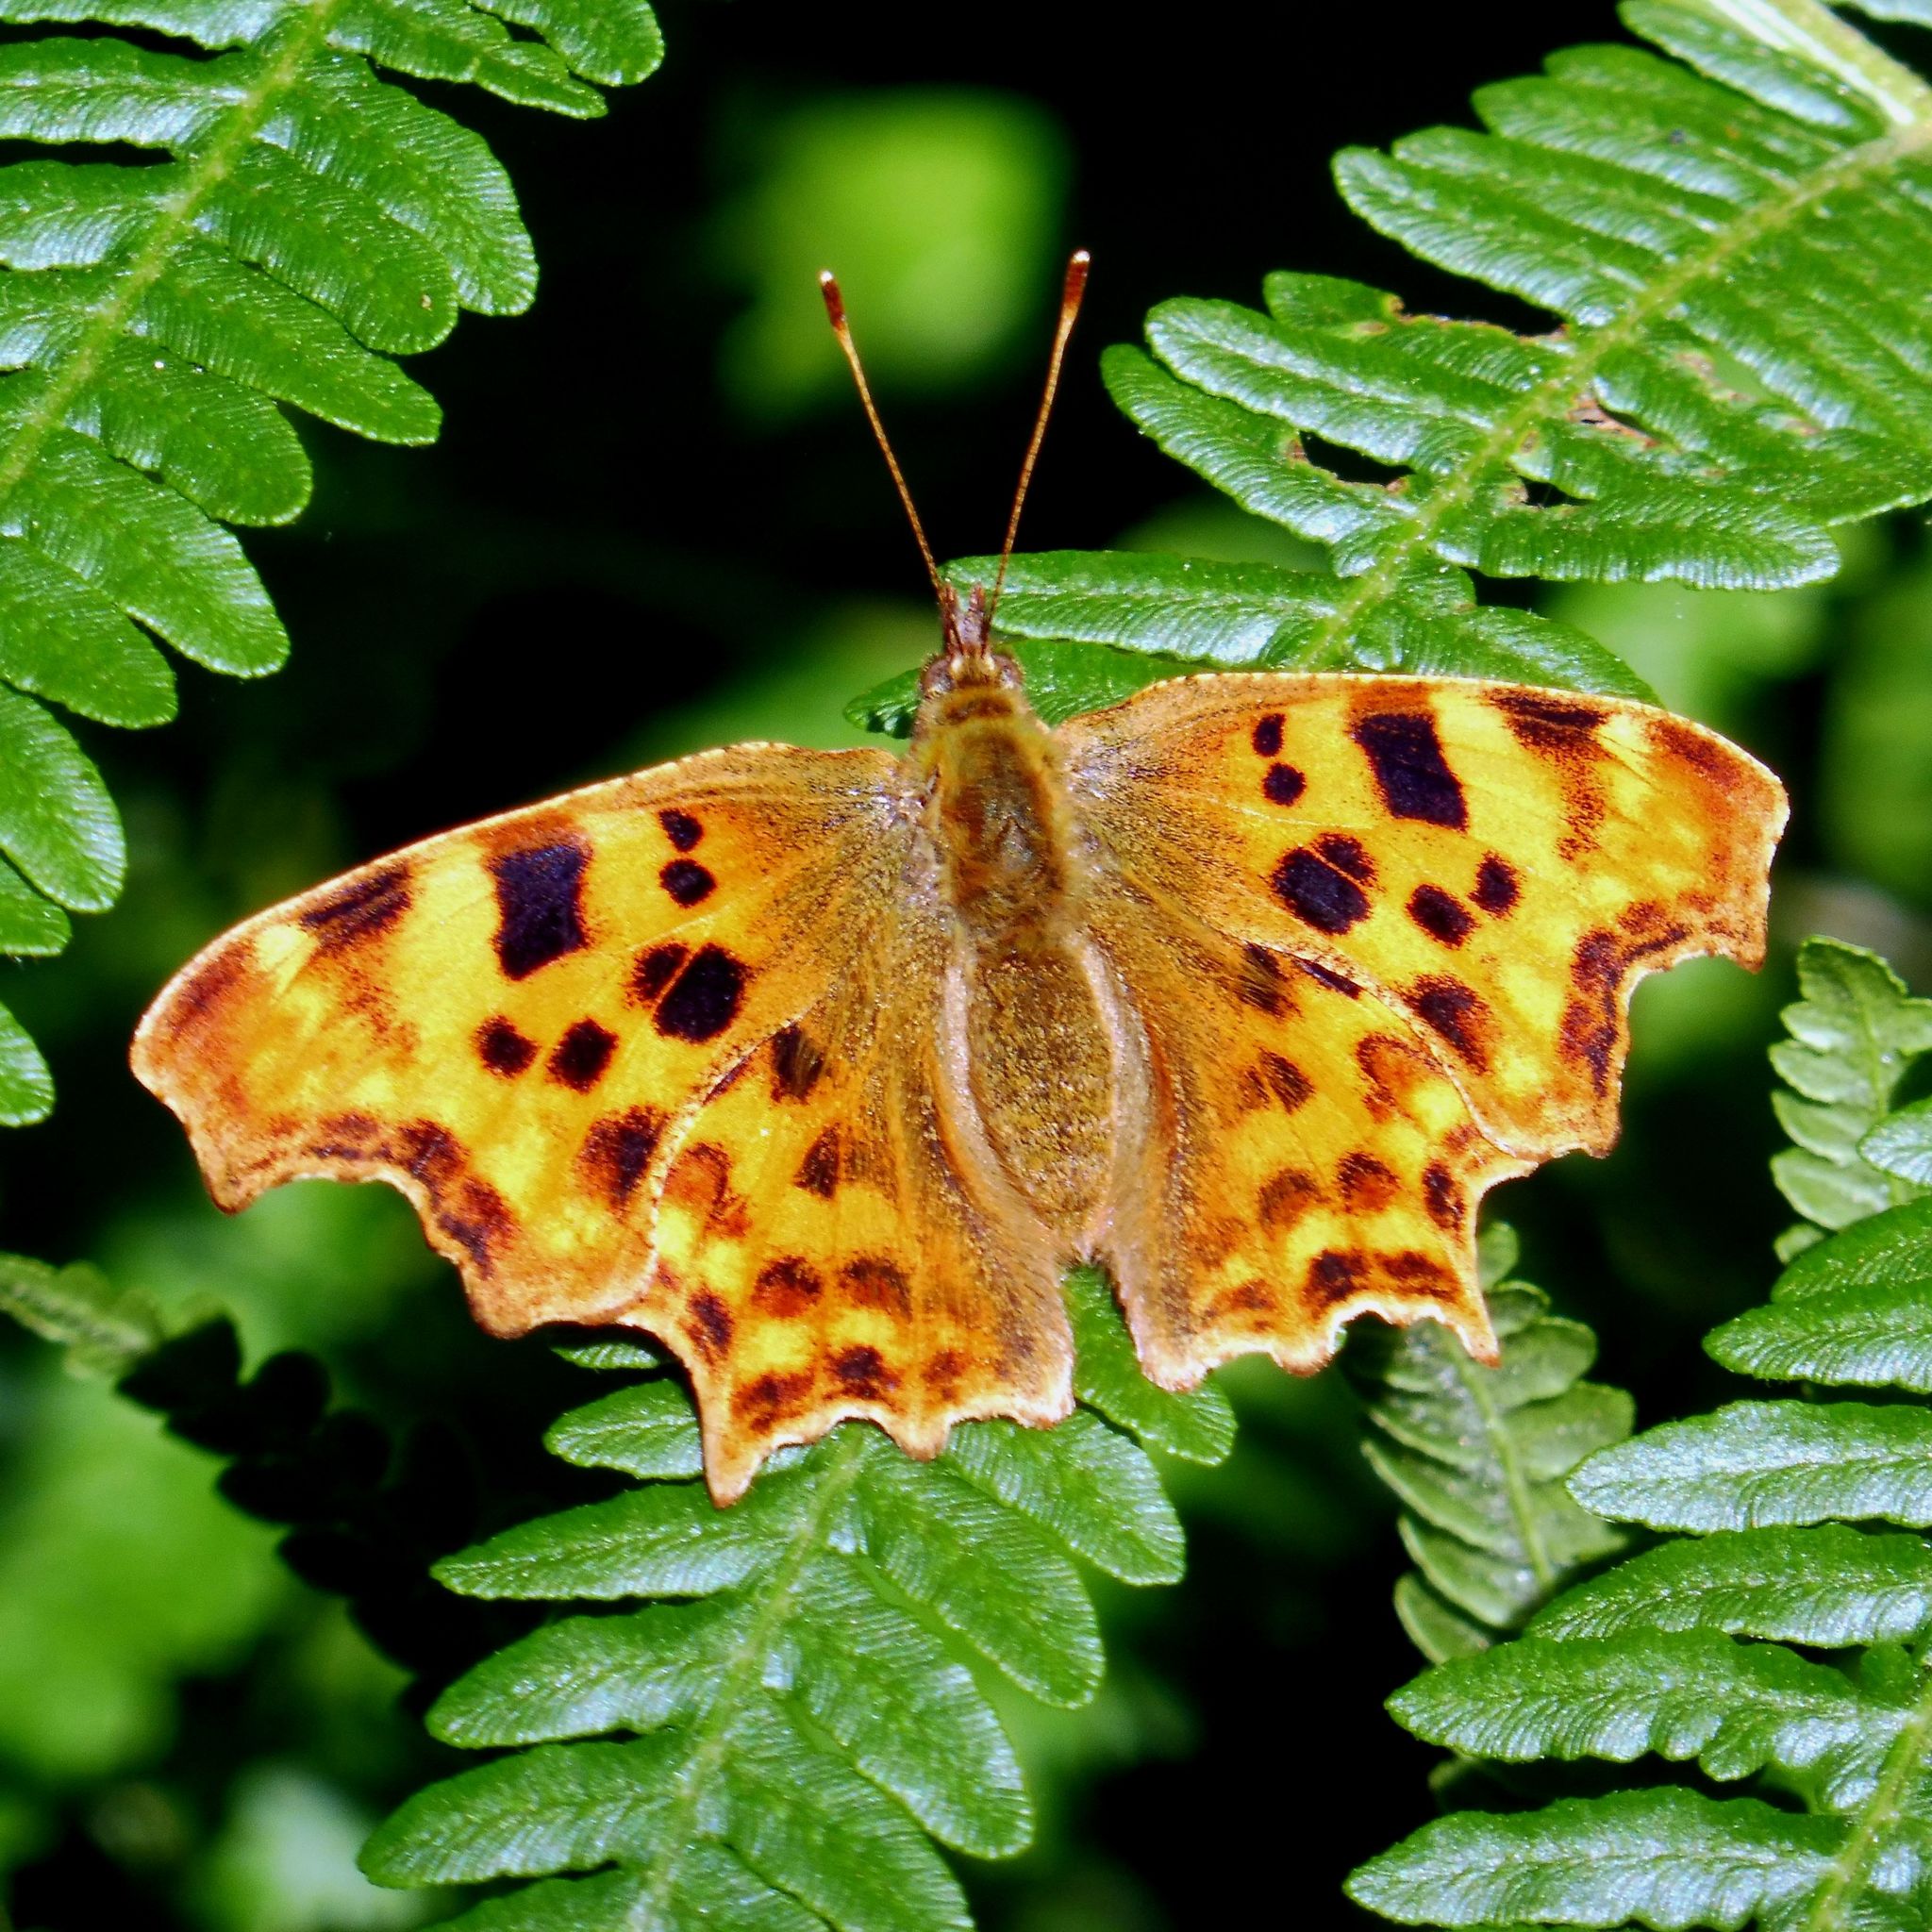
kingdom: Animalia
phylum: Arthropoda
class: Insecta
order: Lepidoptera
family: Nymphalidae
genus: Polygonia
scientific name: Polygonia c-album
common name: Comma
